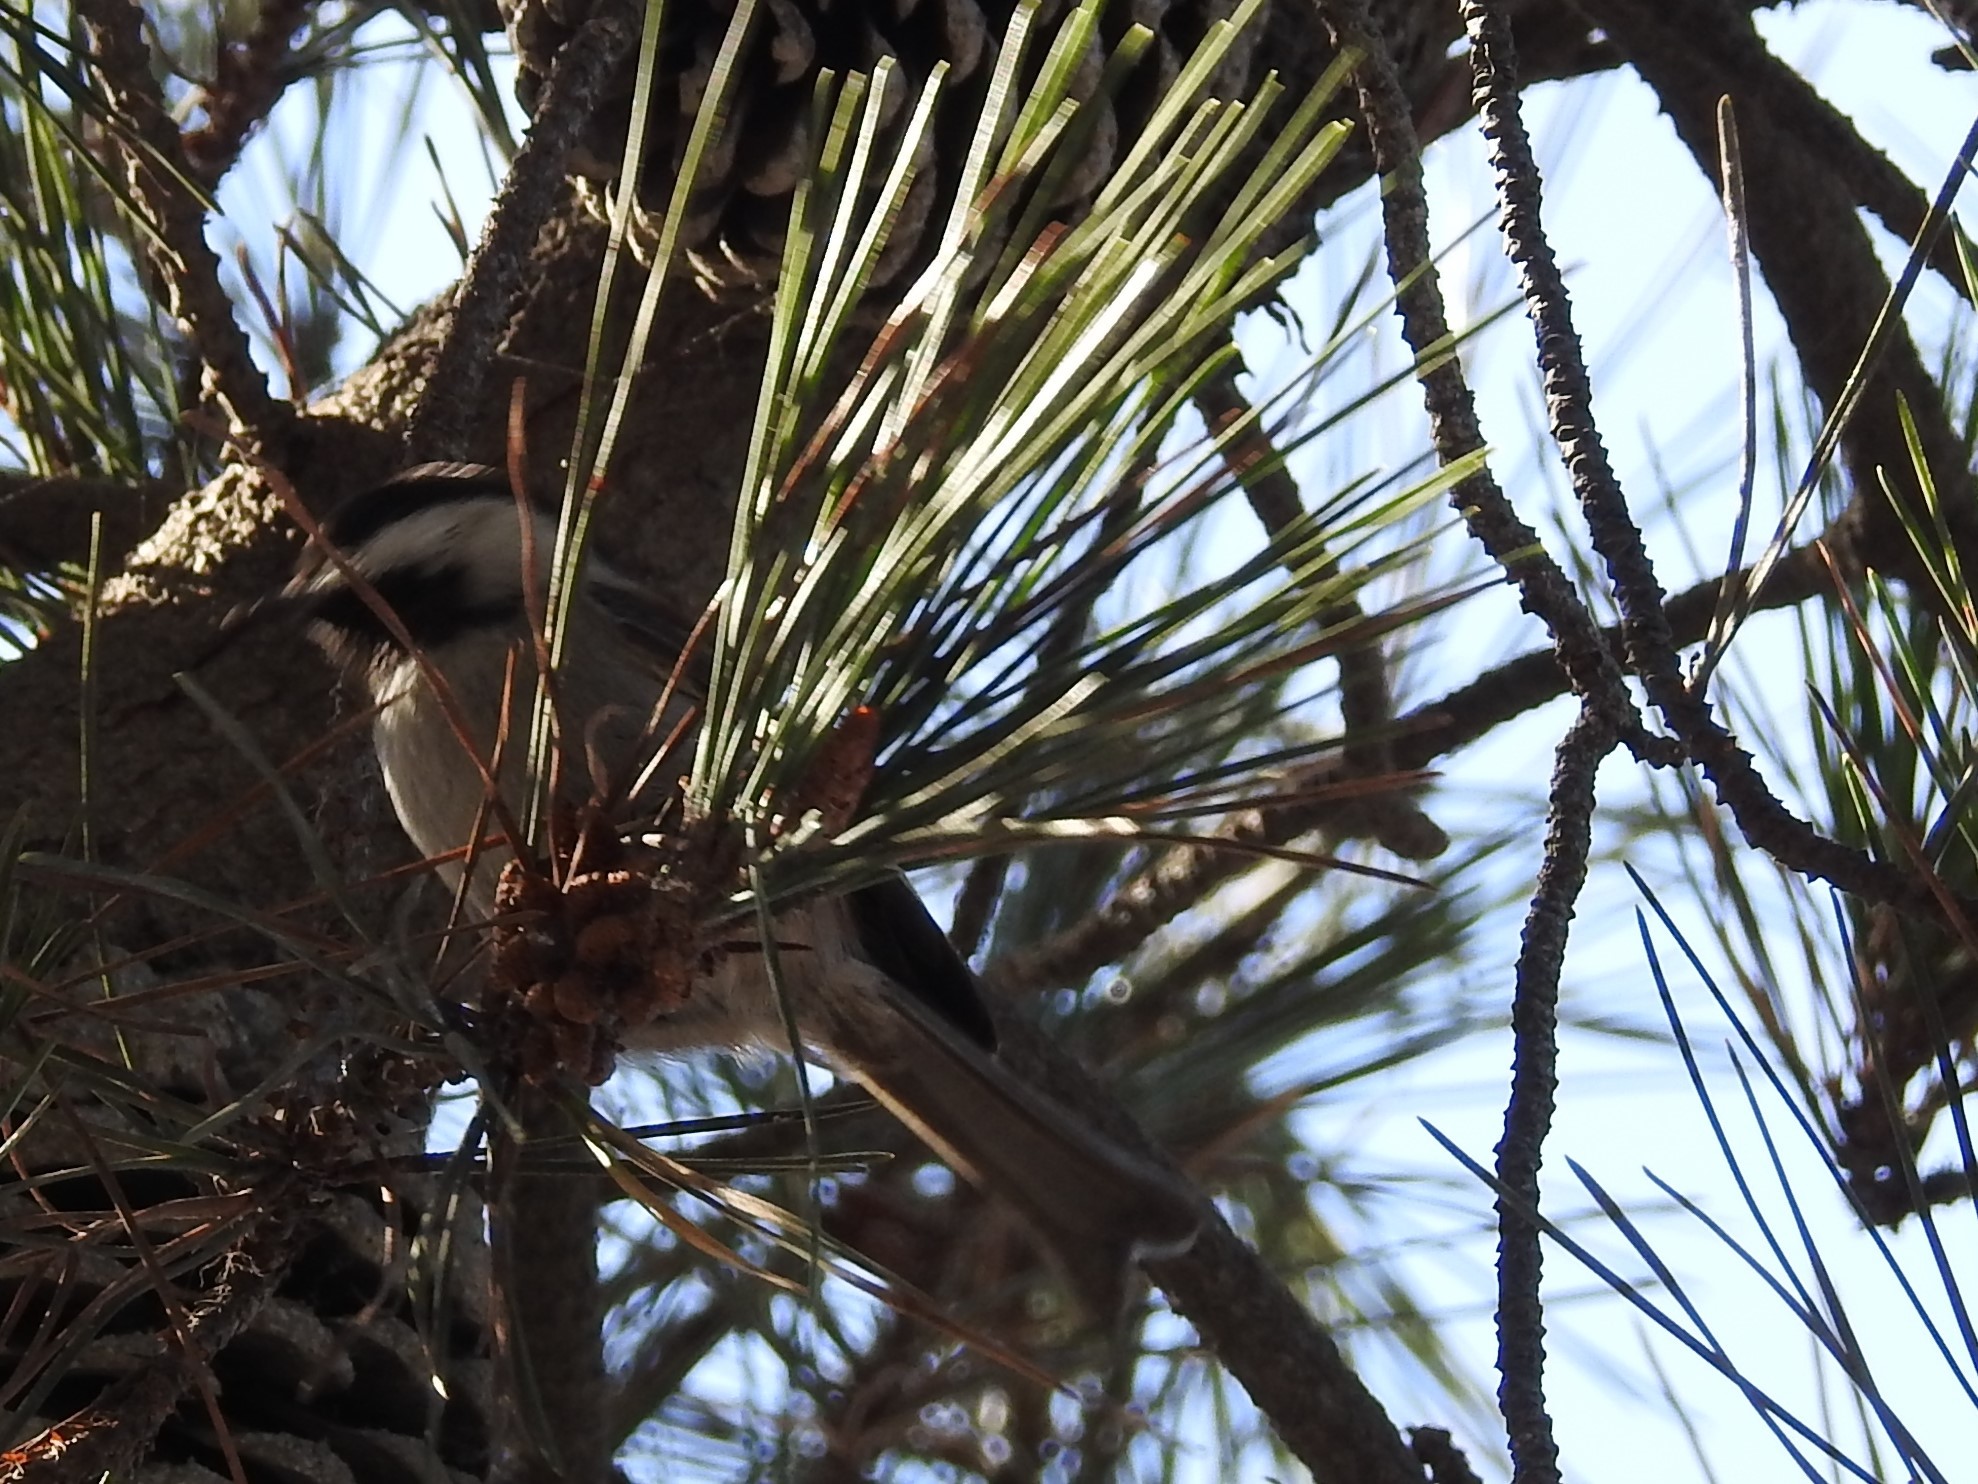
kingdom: Animalia
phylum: Chordata
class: Aves
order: Passeriformes
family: Paridae
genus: Poecile
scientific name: Poecile rufescens
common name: Chestnut-backed chickadee
